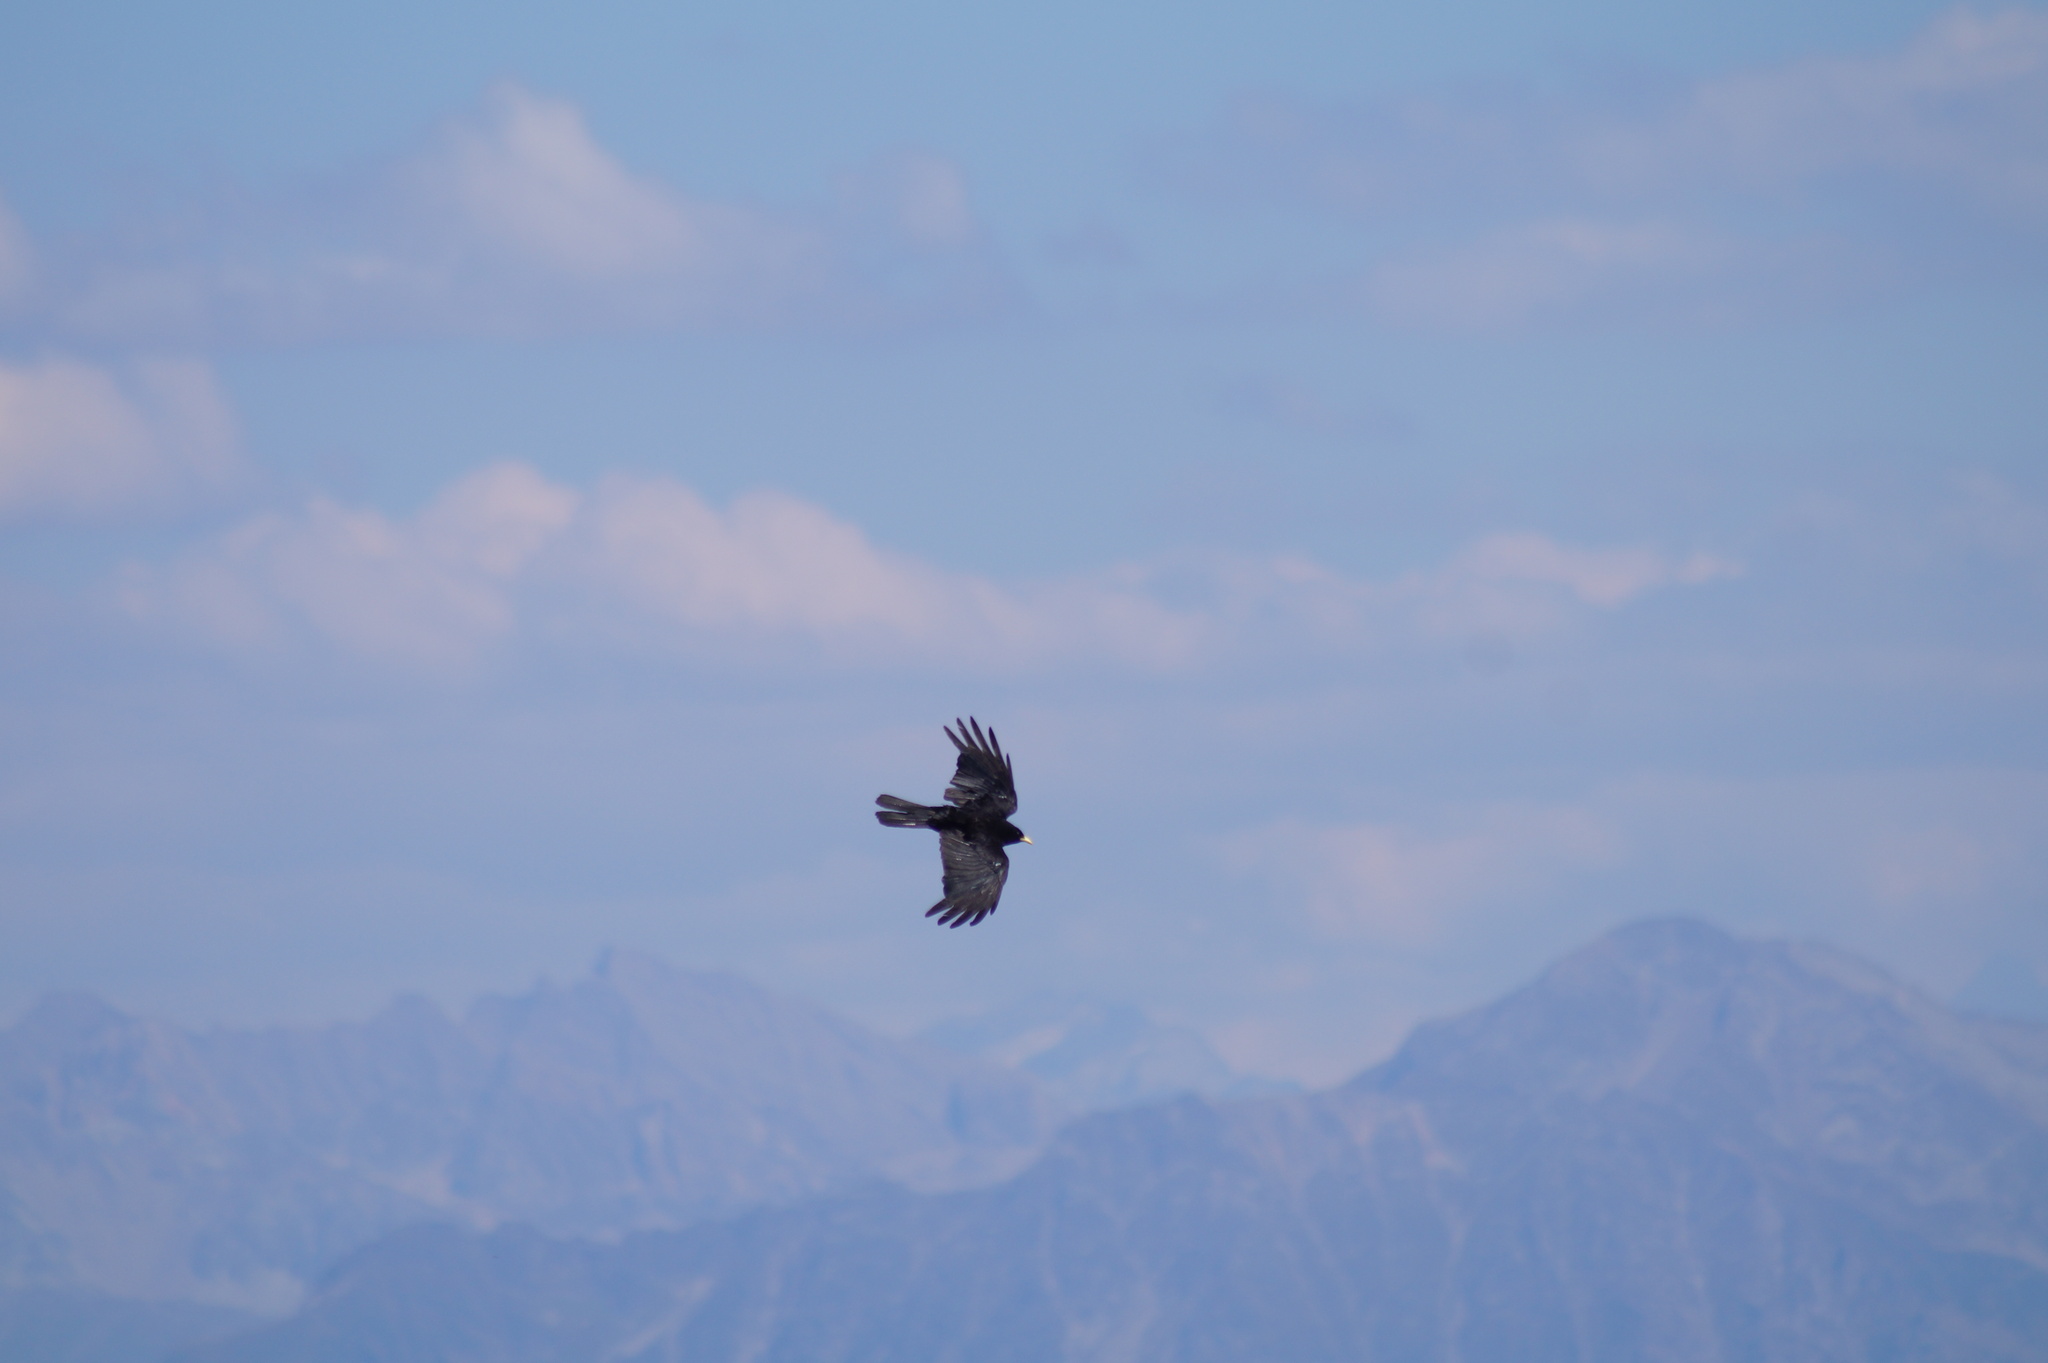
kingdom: Animalia
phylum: Chordata
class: Aves
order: Passeriformes
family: Corvidae
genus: Pyrrhocorax
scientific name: Pyrrhocorax graculus
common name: Alpine chough
